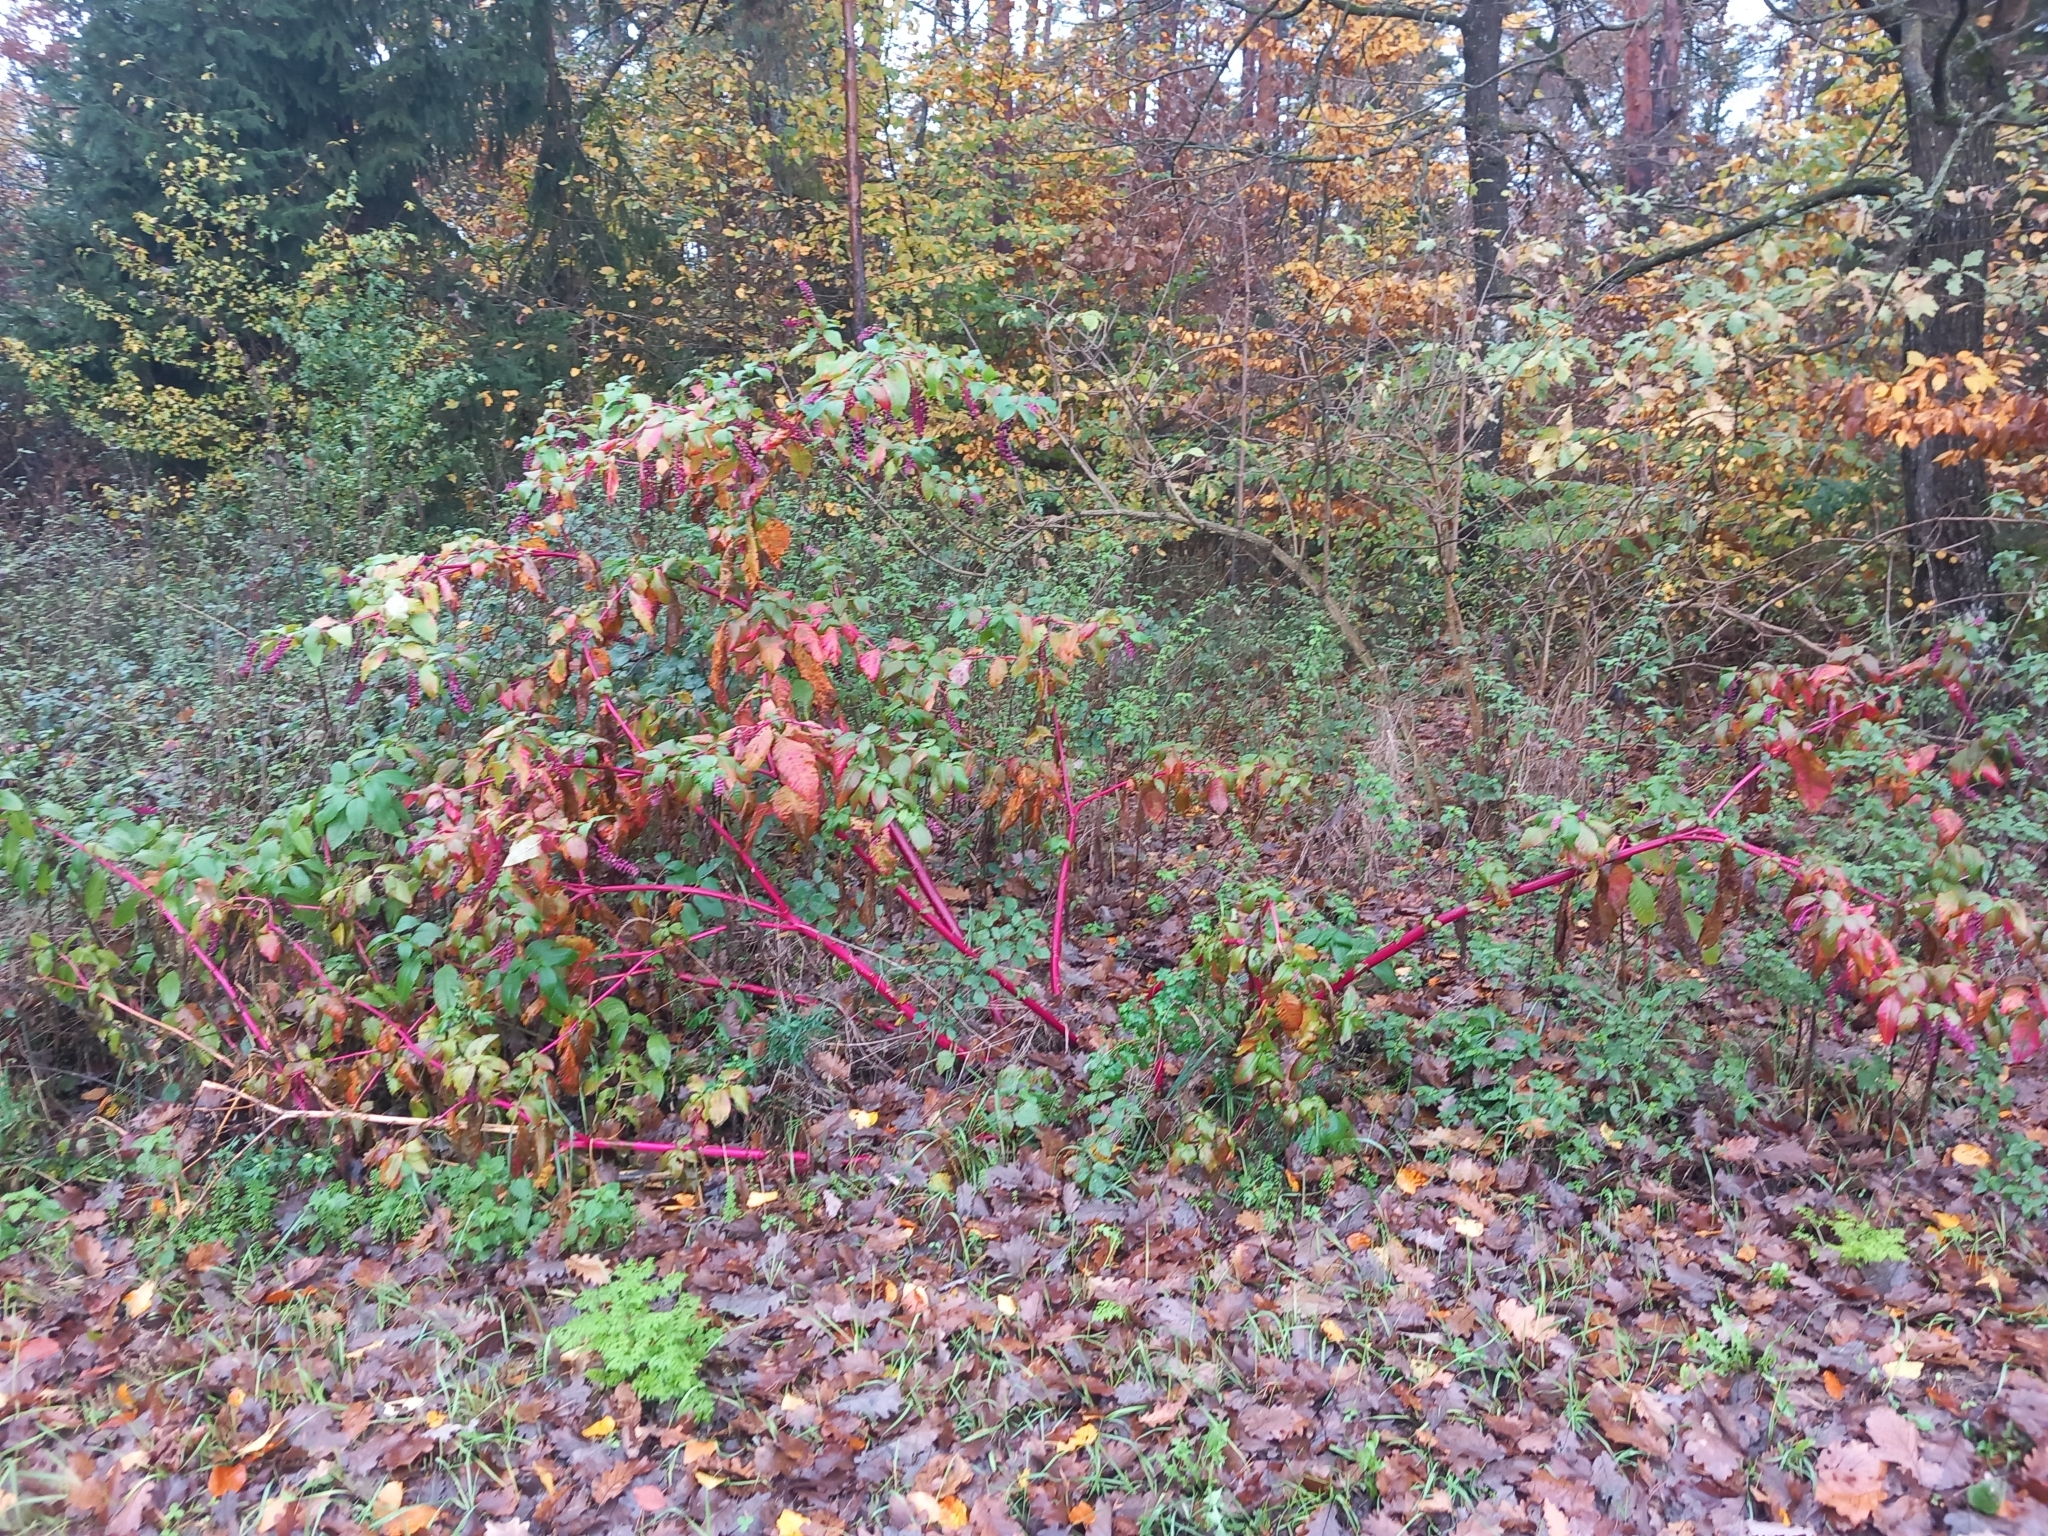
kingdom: Plantae
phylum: Tracheophyta
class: Magnoliopsida
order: Caryophyllales
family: Phytolaccaceae
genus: Phytolacca
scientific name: Phytolacca americana
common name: American pokeweed
